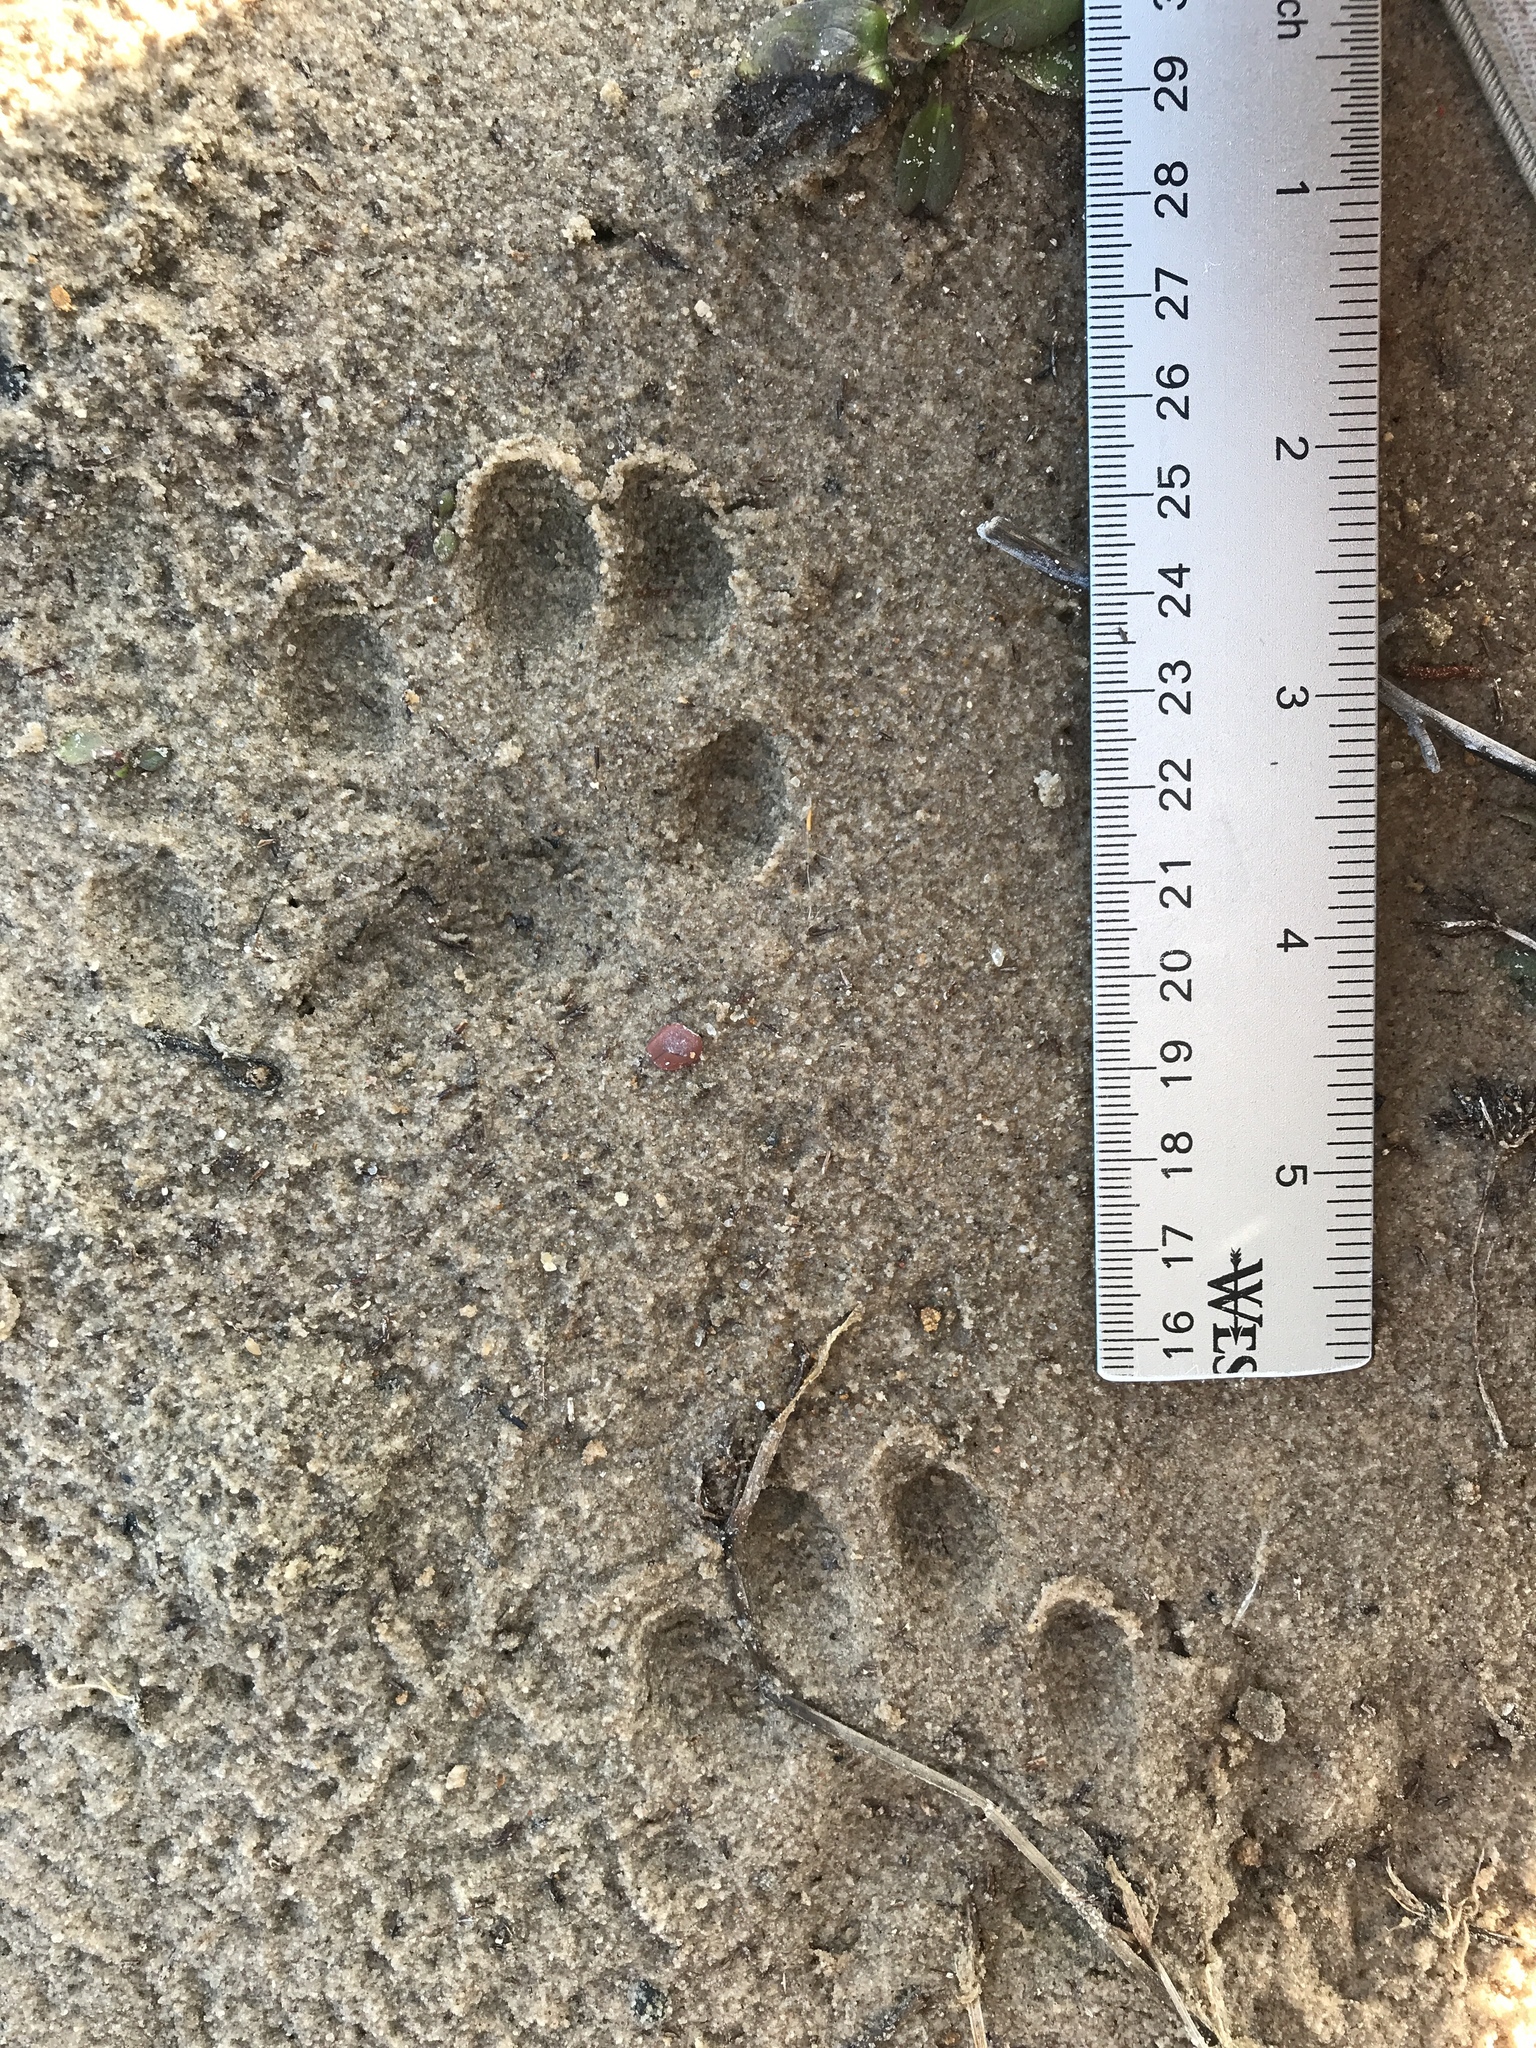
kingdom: Animalia
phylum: Chordata
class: Mammalia
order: Carnivora
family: Mustelidae
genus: Lontra
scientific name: Lontra canadensis
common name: North american river otter
